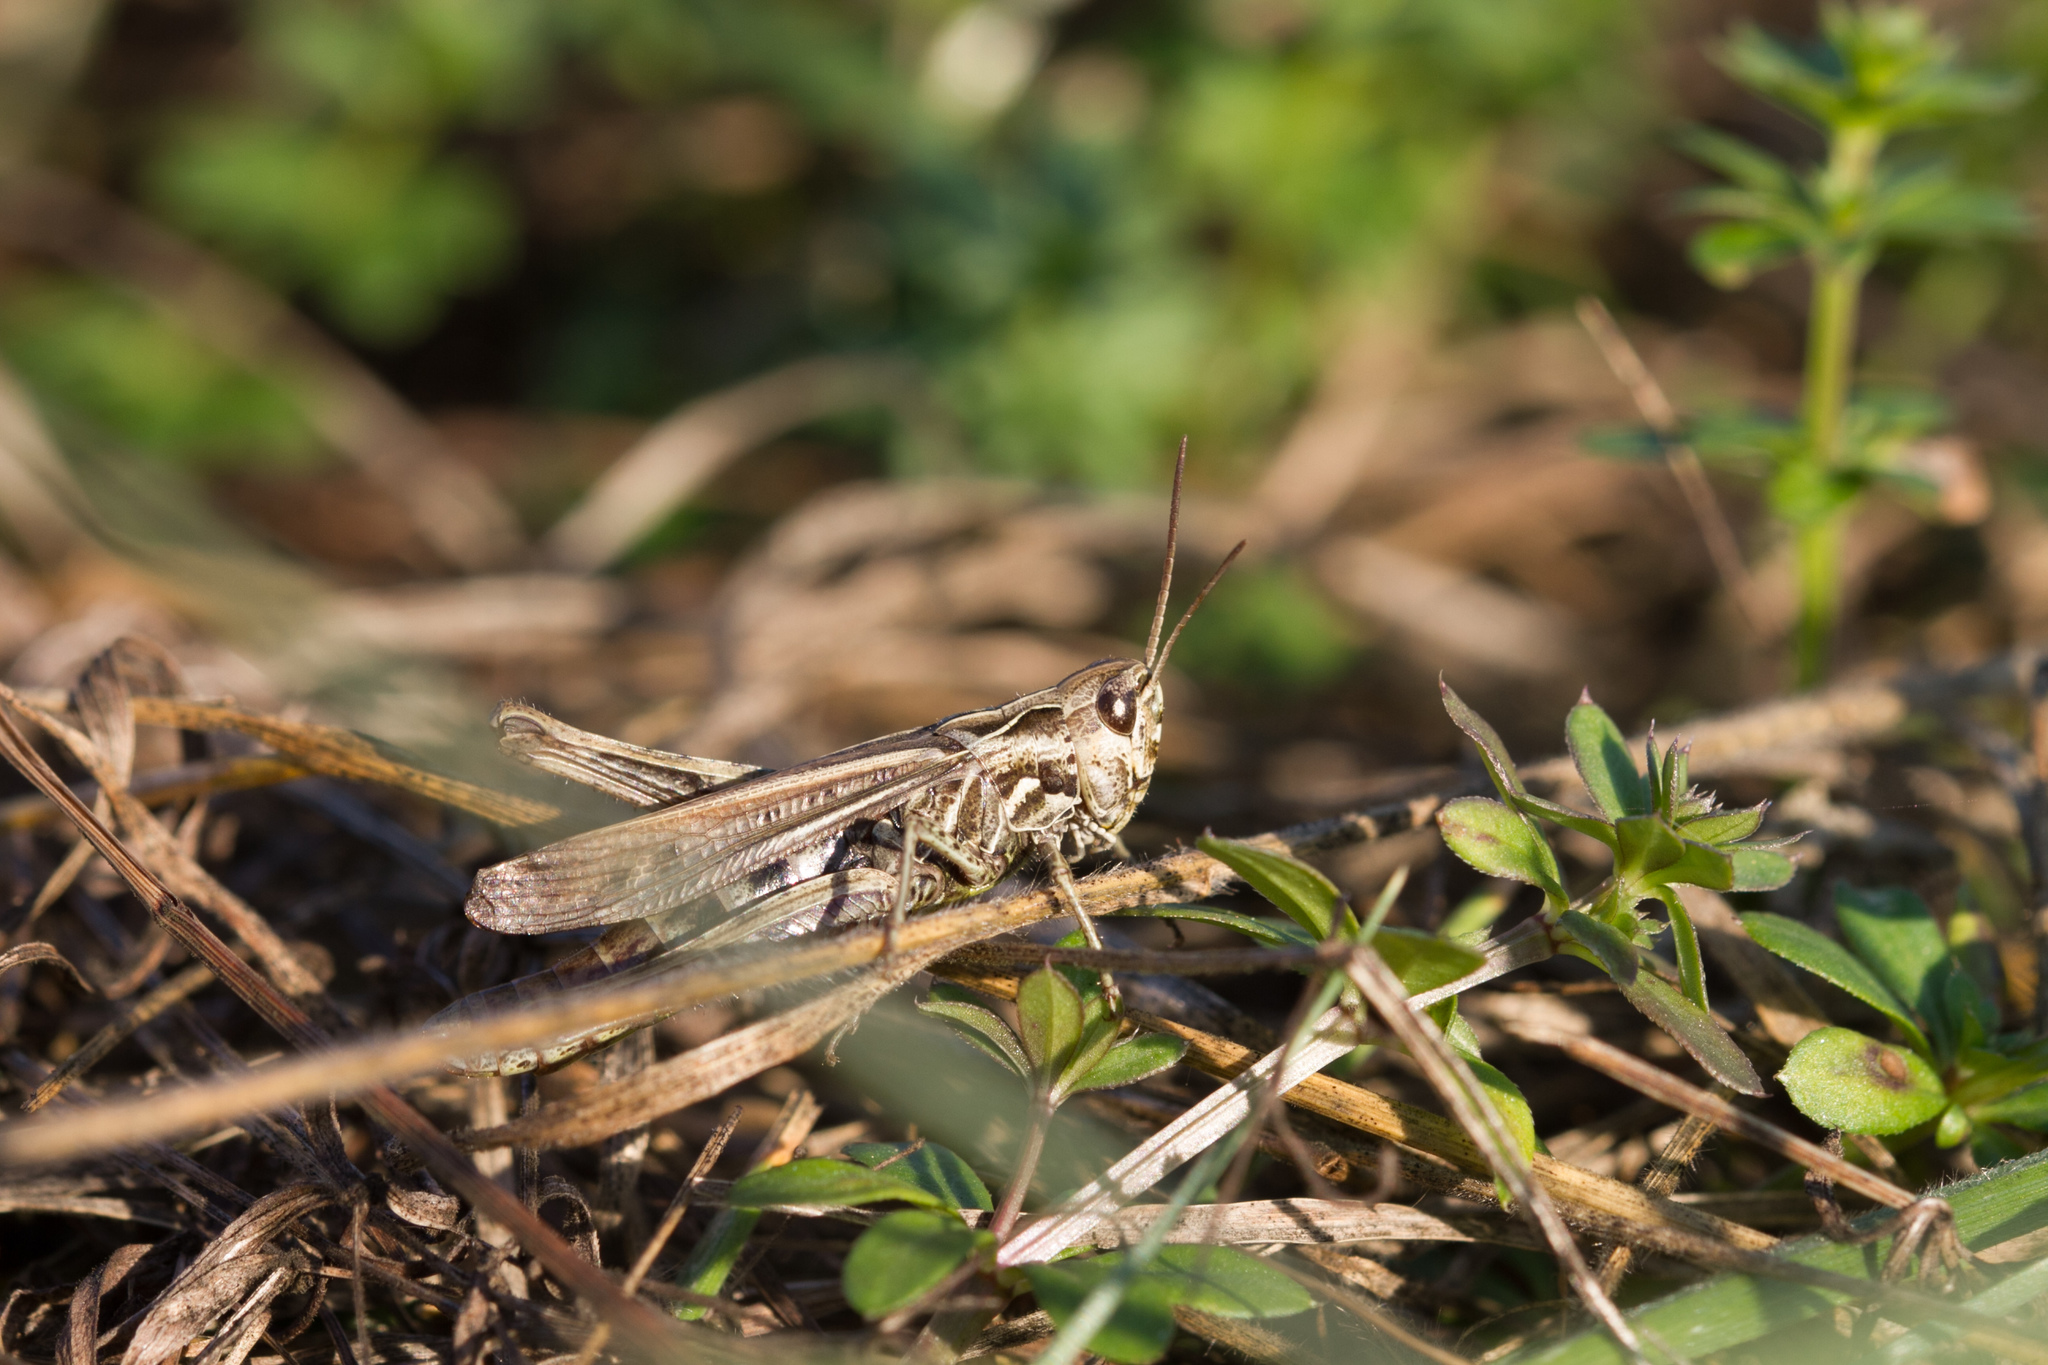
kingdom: Animalia
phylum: Arthropoda
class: Insecta
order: Orthoptera
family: Acrididae
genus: Chorthippus
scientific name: Chorthippus brunneus
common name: Field grasshopper
